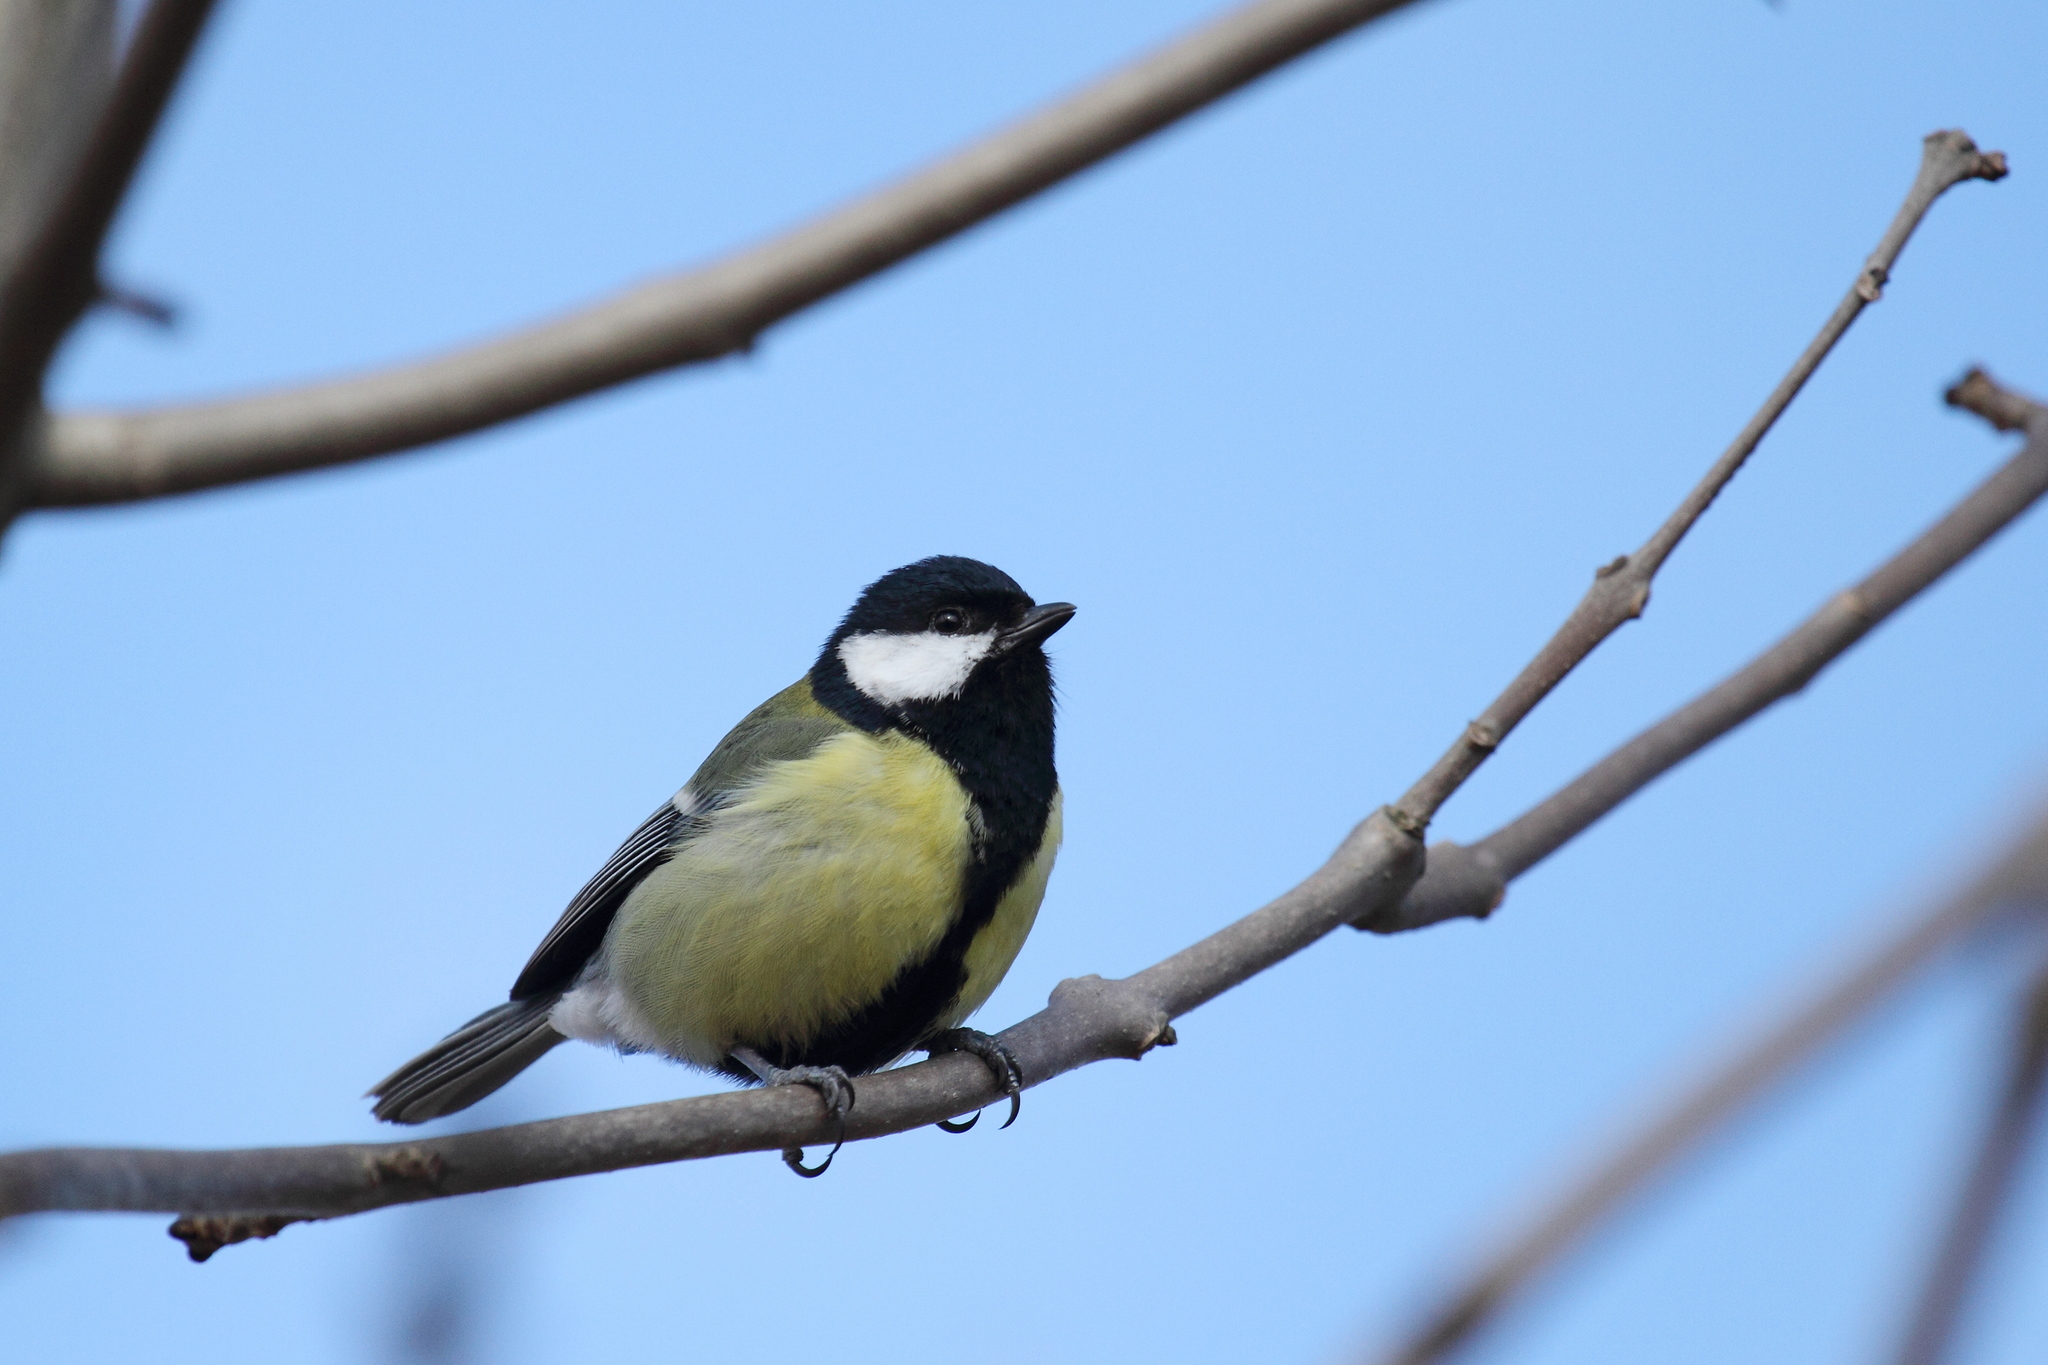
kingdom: Animalia
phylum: Chordata
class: Aves
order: Passeriformes
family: Paridae
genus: Parus
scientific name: Parus major
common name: Great tit
